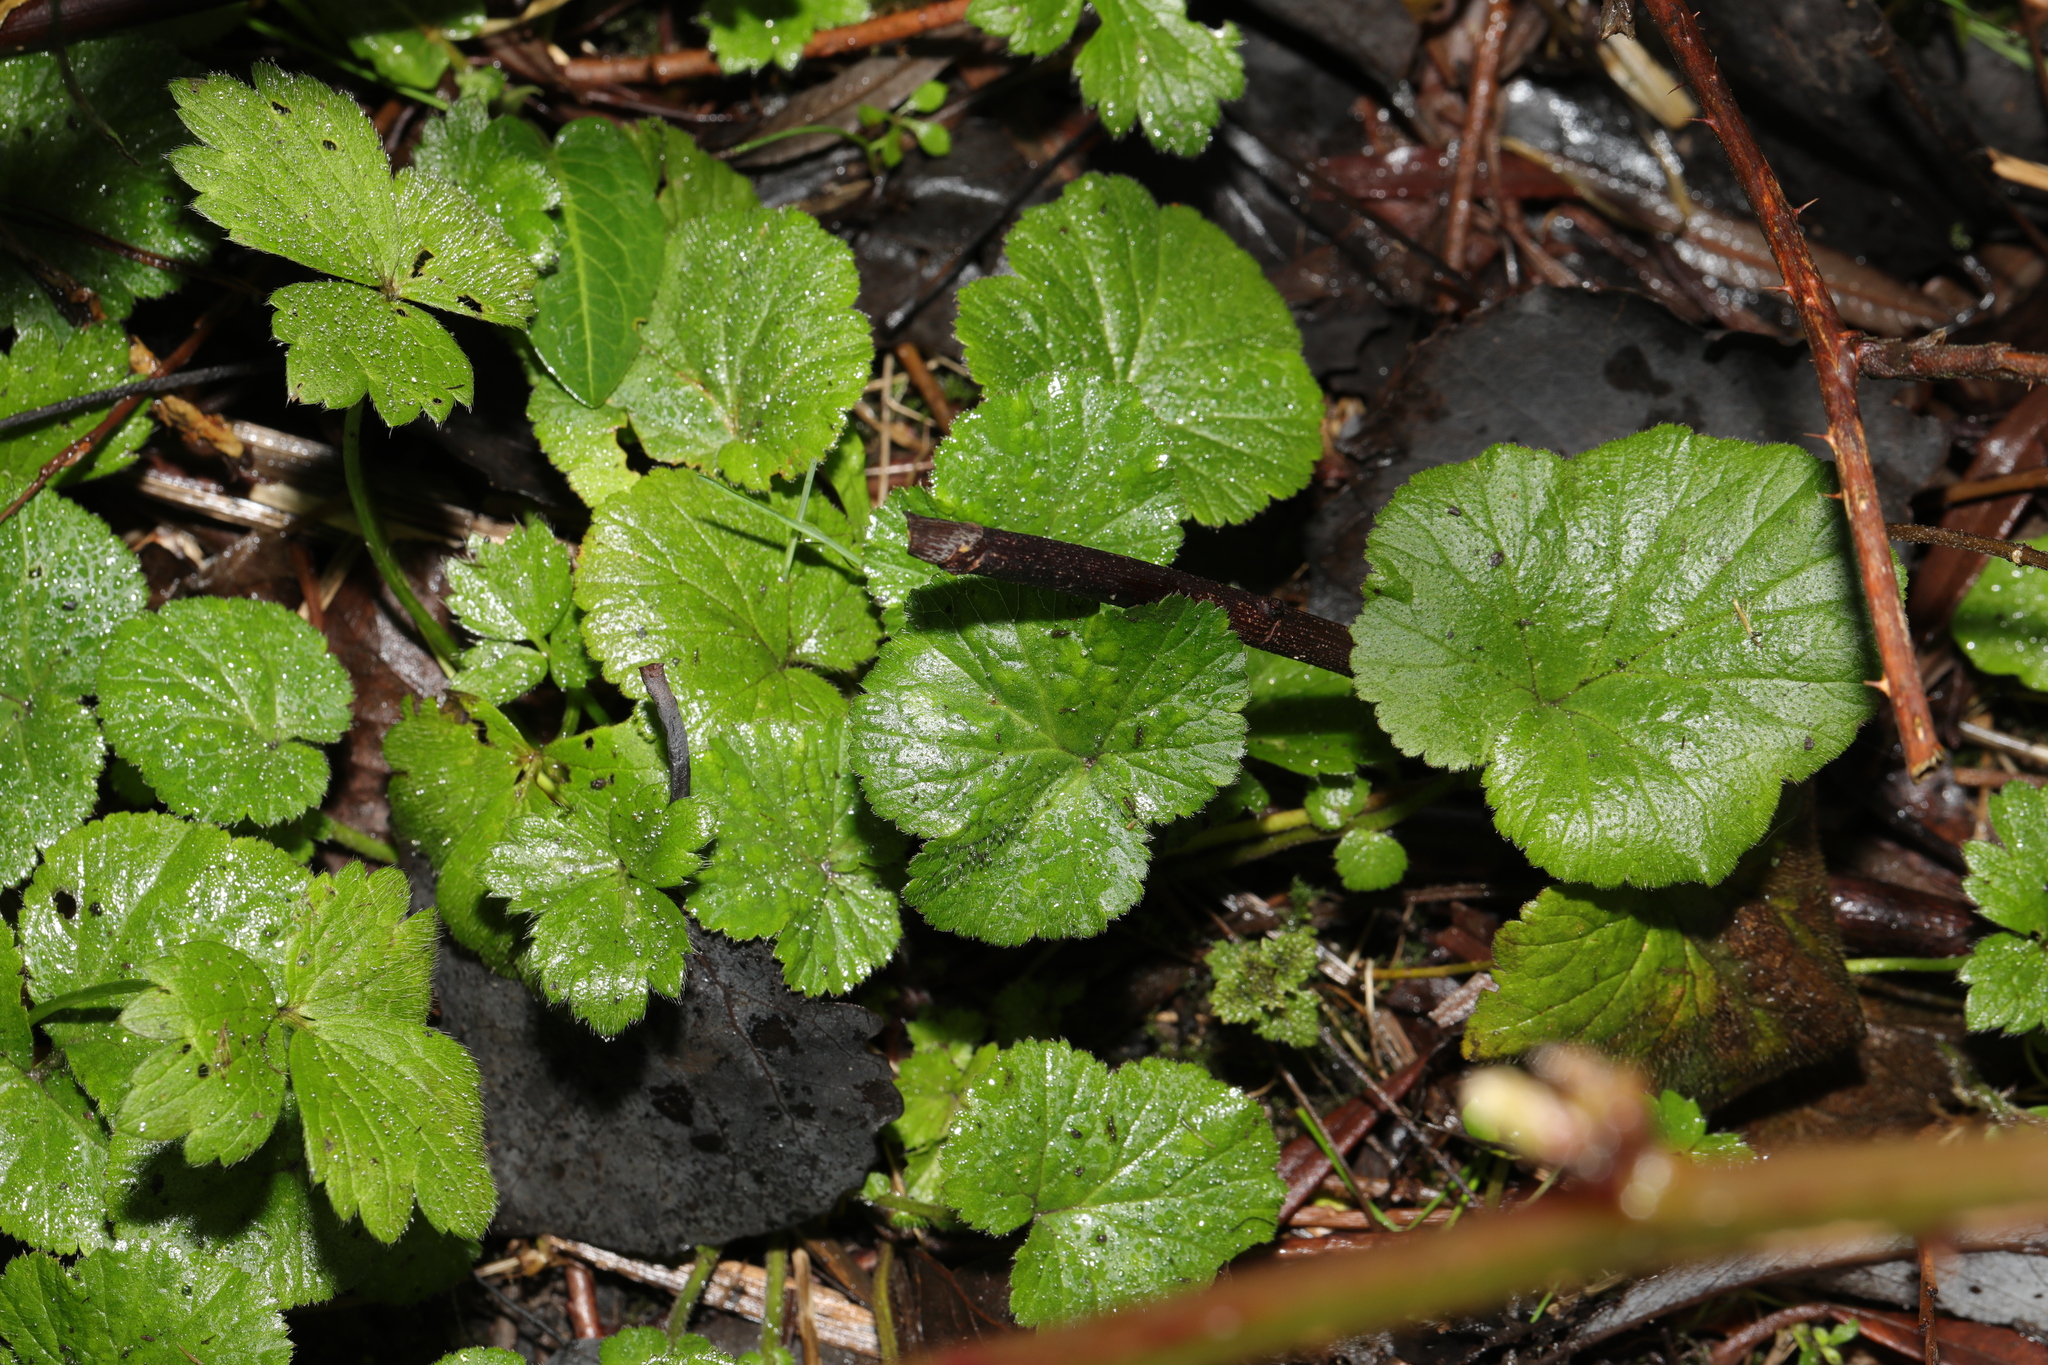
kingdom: Plantae
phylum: Tracheophyta
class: Magnoliopsida
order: Rosales
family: Rosaceae
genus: Geum
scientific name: Geum urbanum
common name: Wood avens
